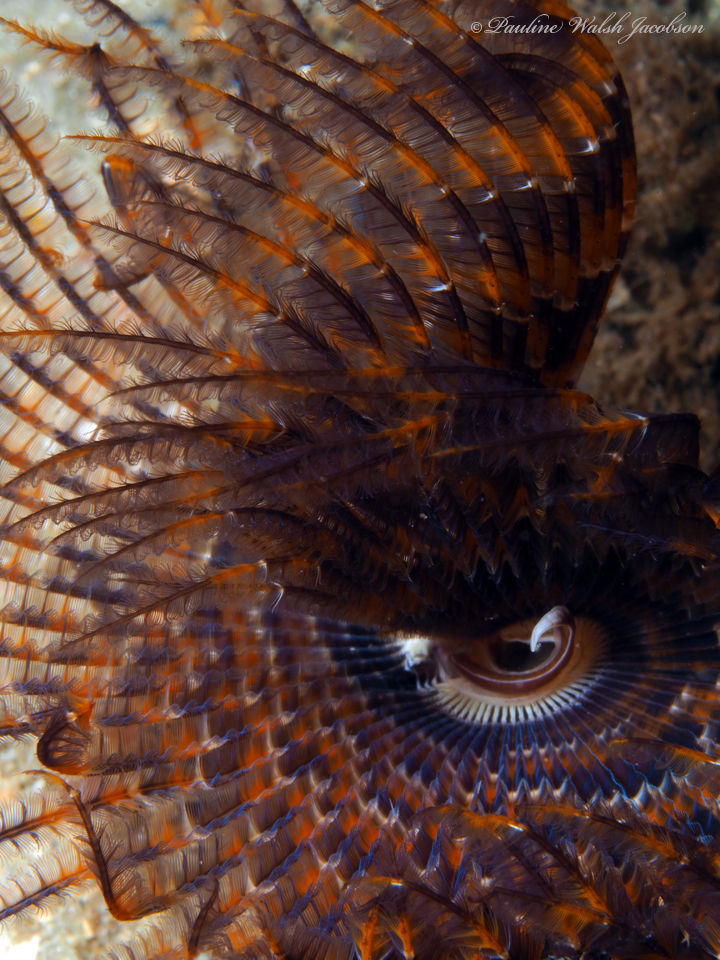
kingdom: Animalia
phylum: Annelida
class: Polychaeta
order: Sabellida
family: Sabellidae
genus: Branchiomma
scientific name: Branchiomma nigromaculatum
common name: Black-spotted feather duster
